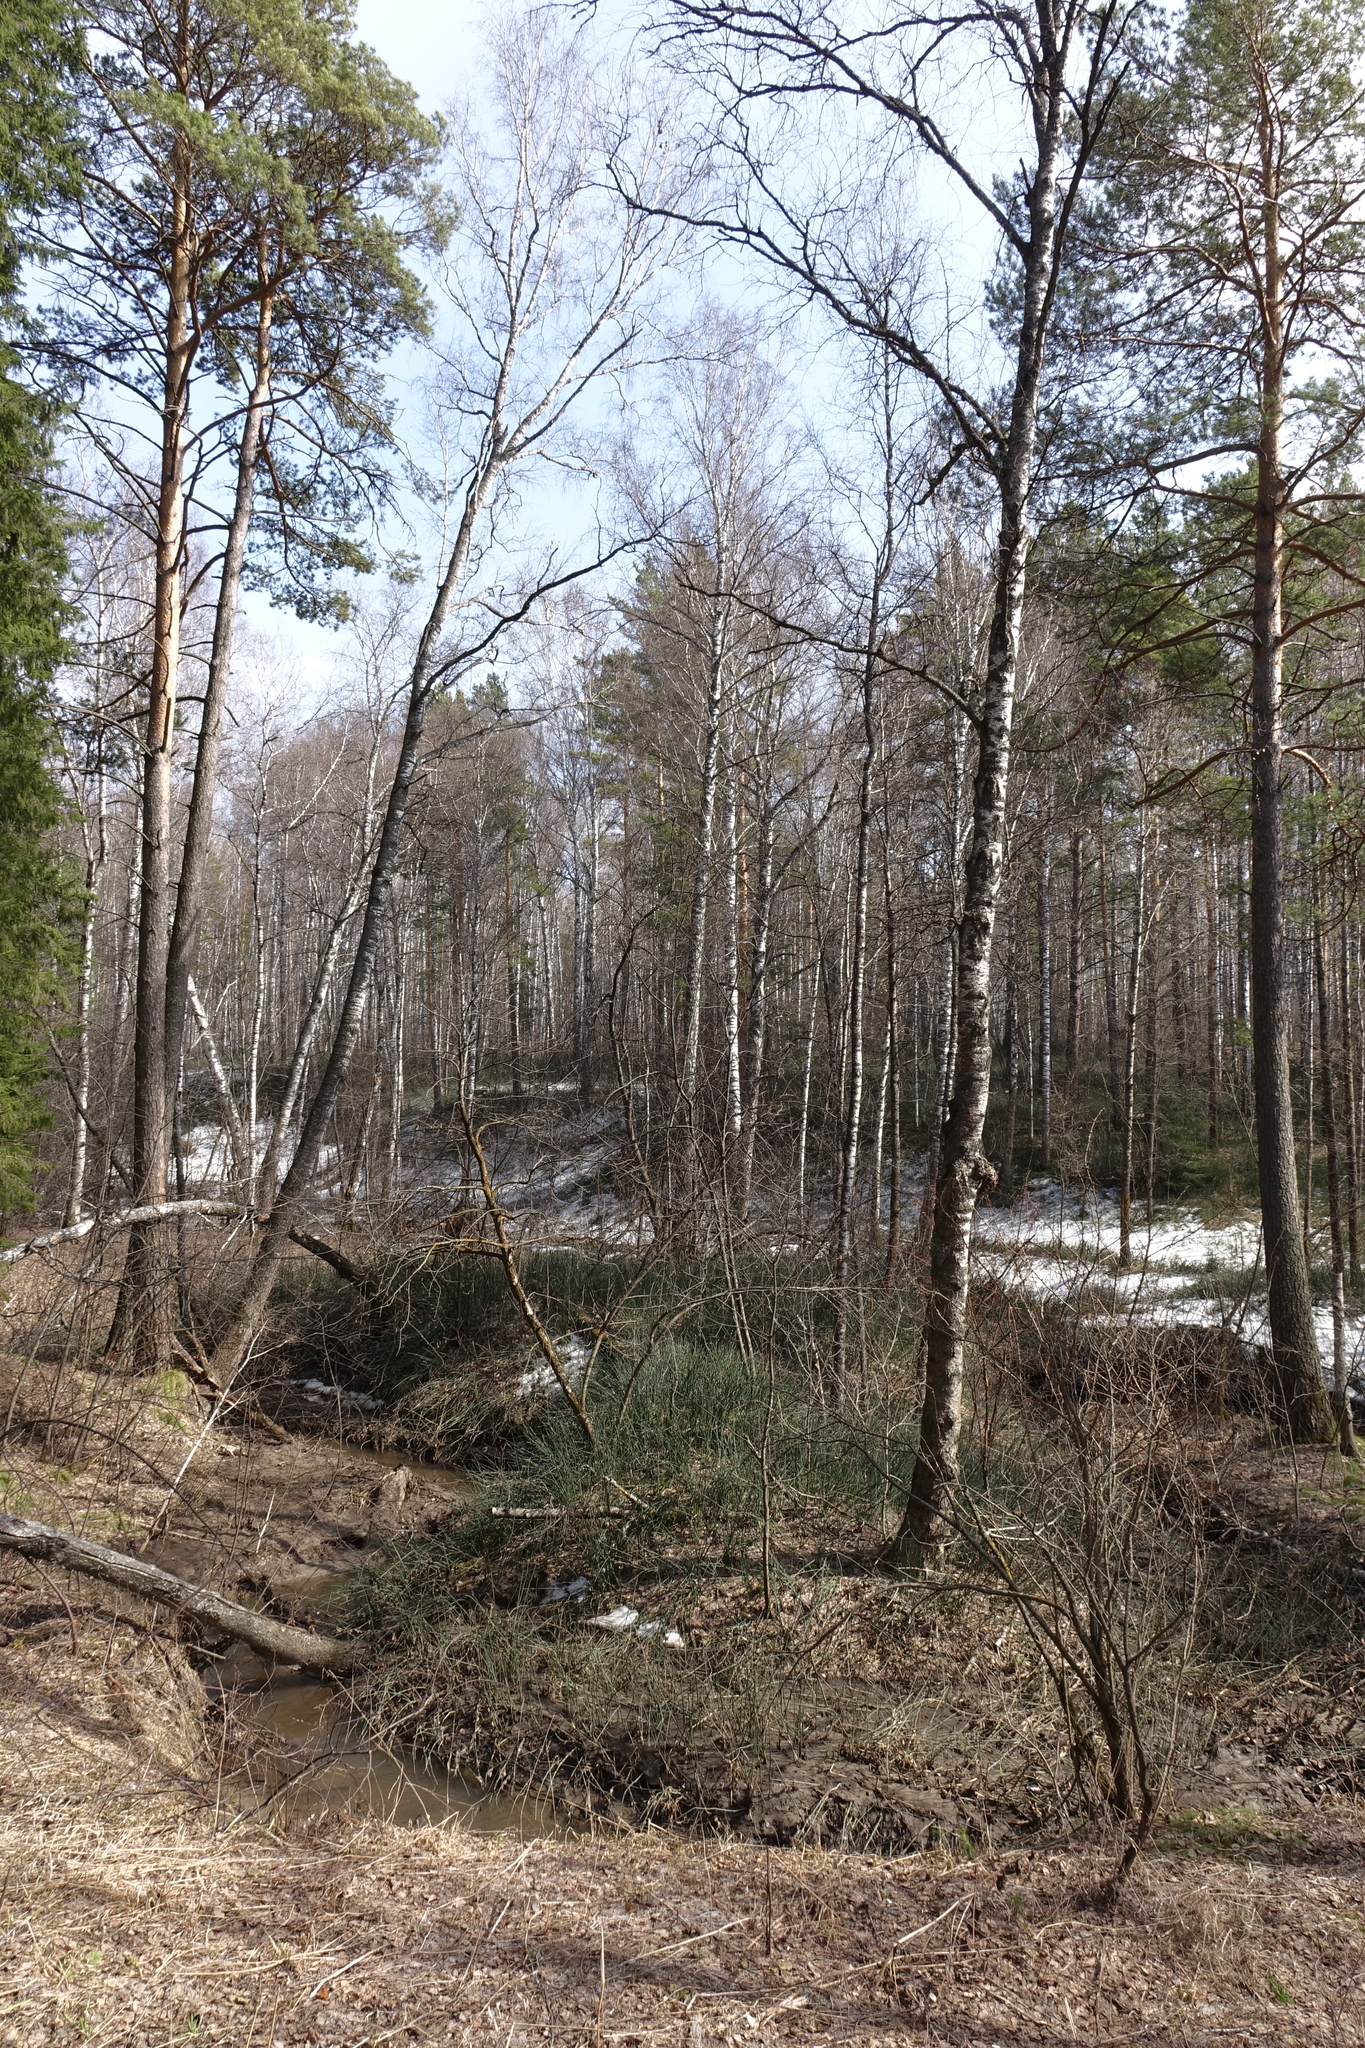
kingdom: Plantae
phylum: Tracheophyta
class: Polypodiopsida
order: Equisetales
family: Equisetaceae
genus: Equisetum
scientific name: Equisetum hyemale
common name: Rough horsetail
